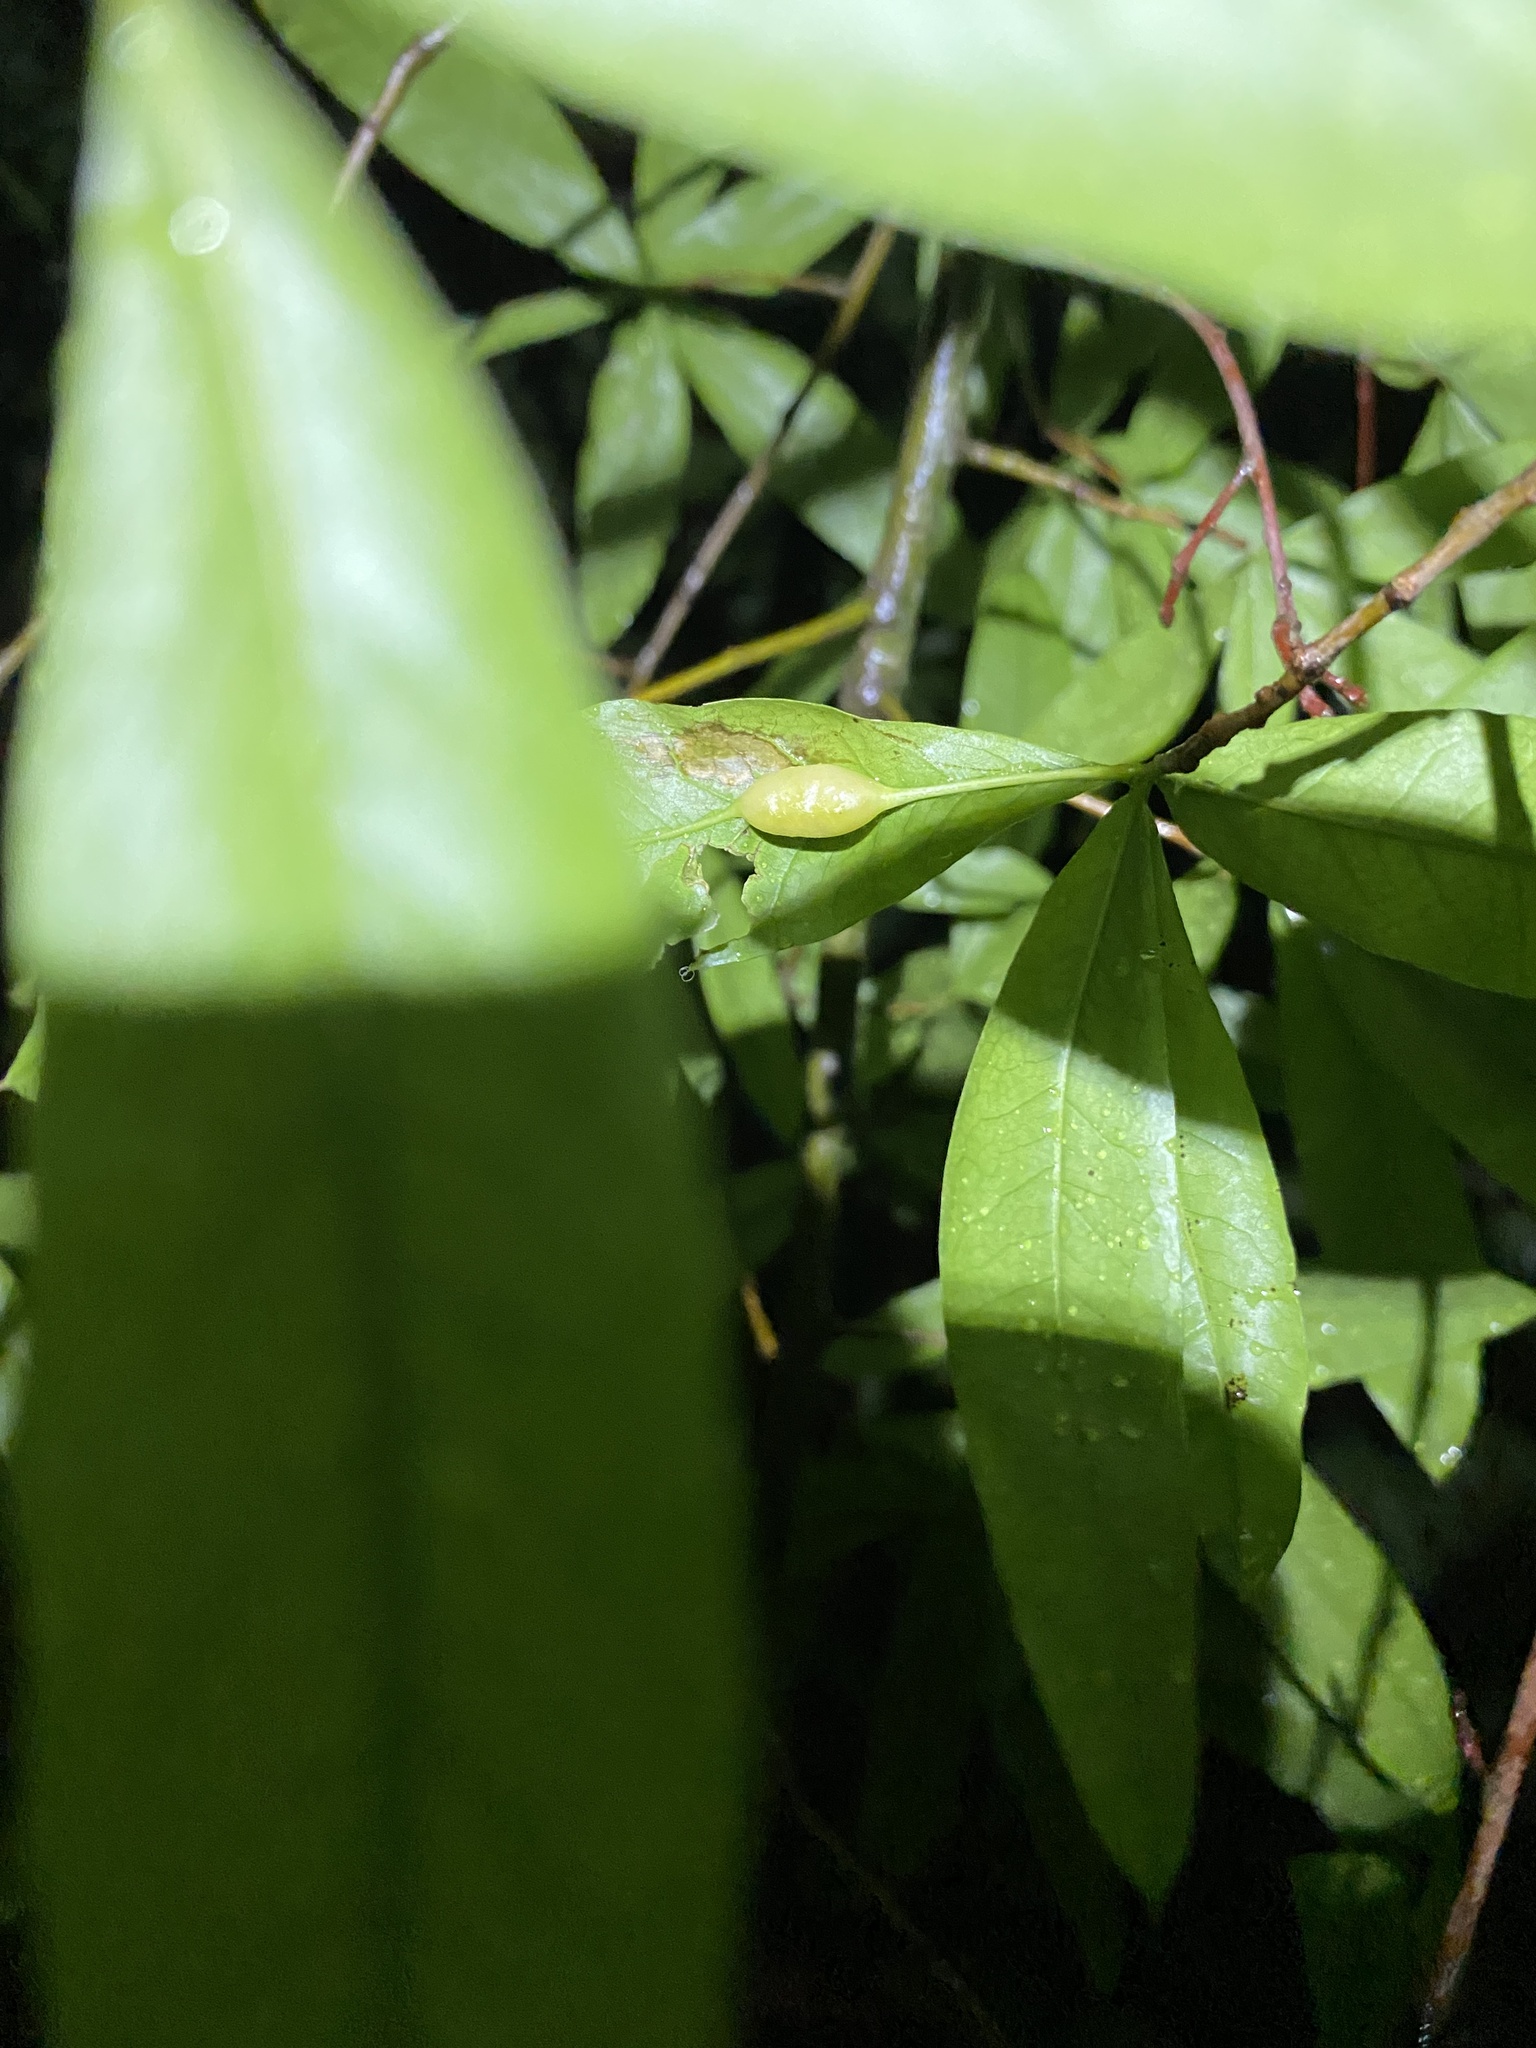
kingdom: Animalia
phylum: Arthropoda
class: Insecta
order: Hymenoptera
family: Cynipidae
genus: Callirhytis
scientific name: Callirhytis
